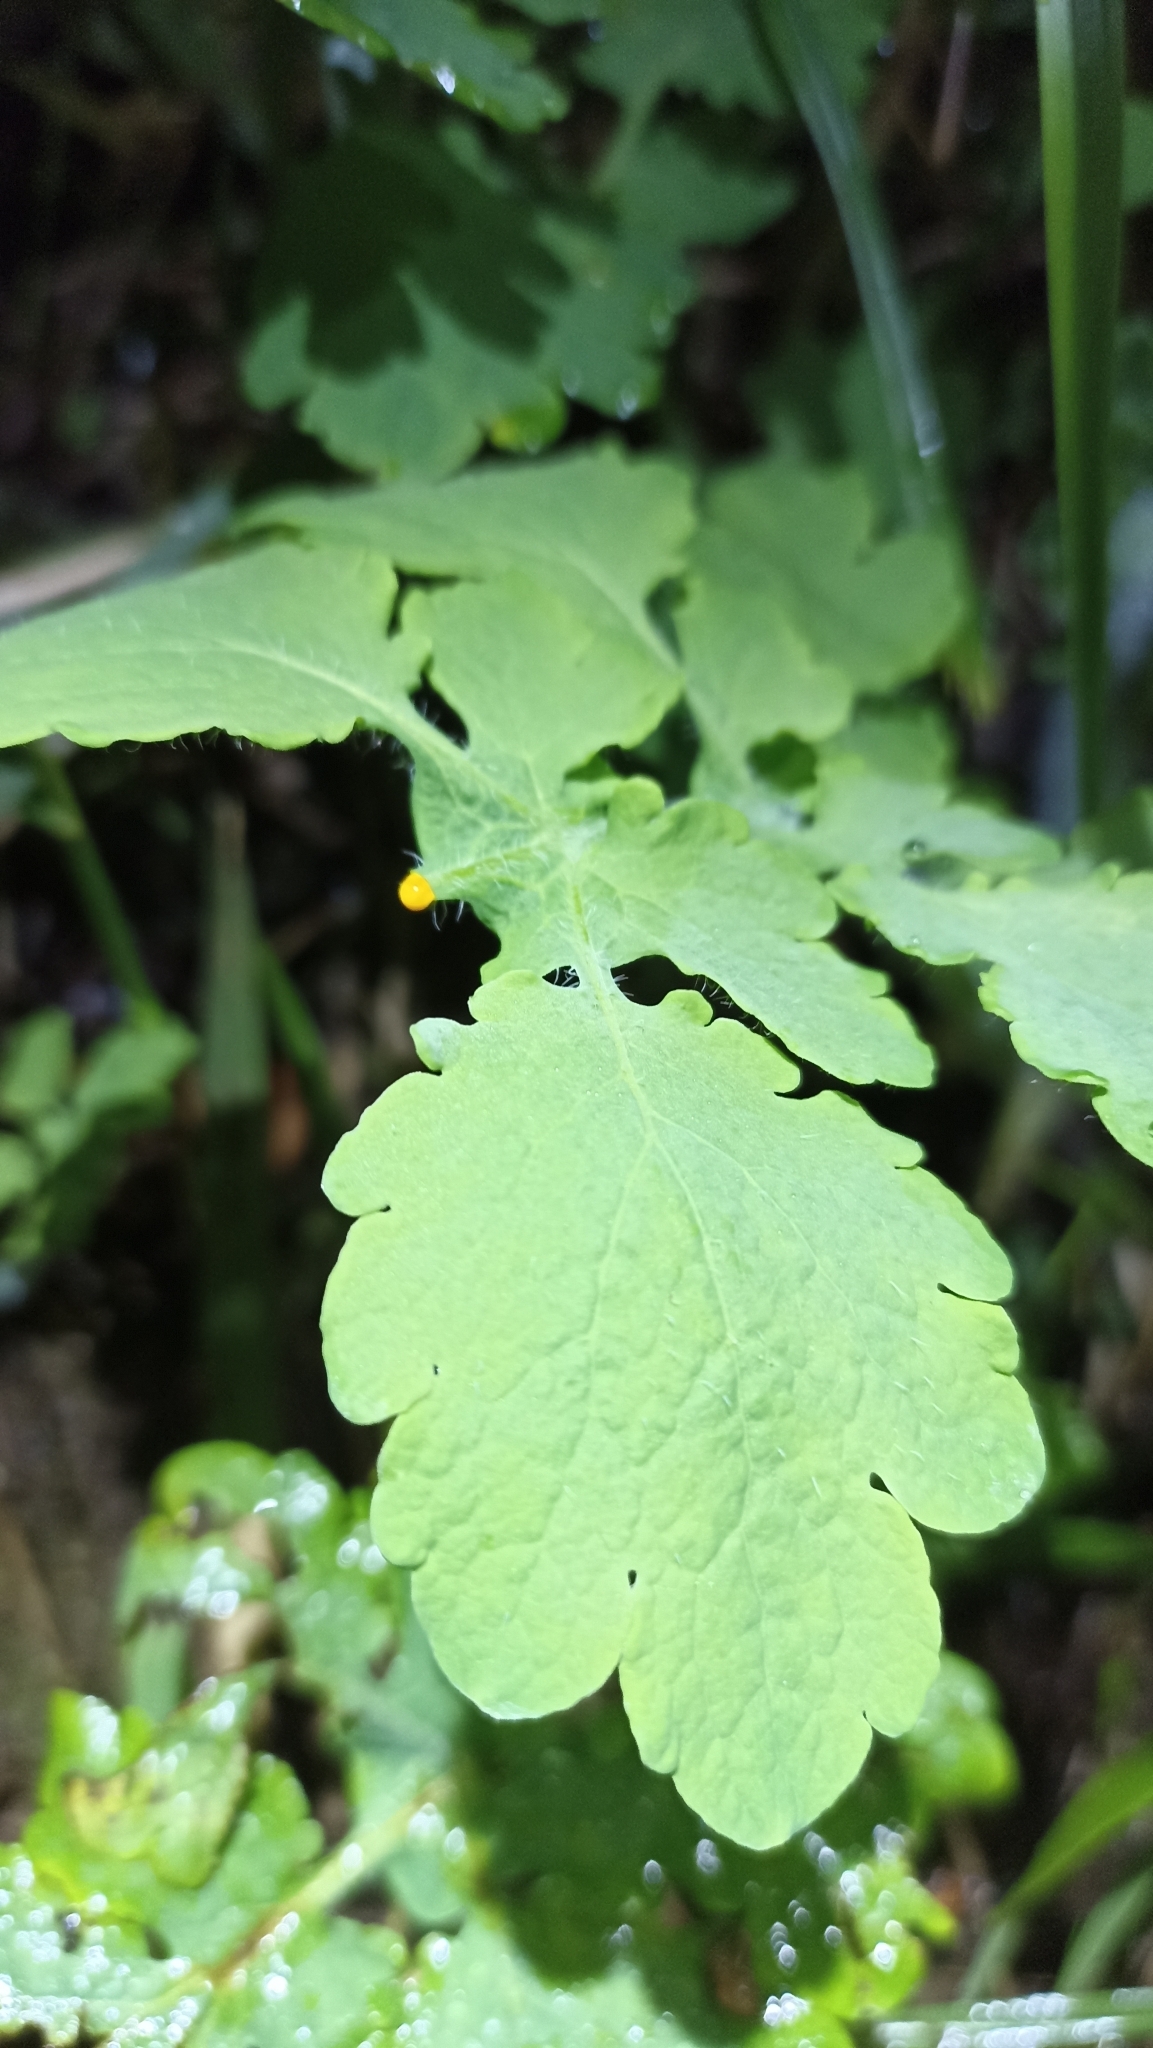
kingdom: Plantae
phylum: Tracheophyta
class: Magnoliopsida
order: Ranunculales
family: Papaveraceae
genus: Chelidonium
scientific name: Chelidonium majus
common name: Greater celandine
